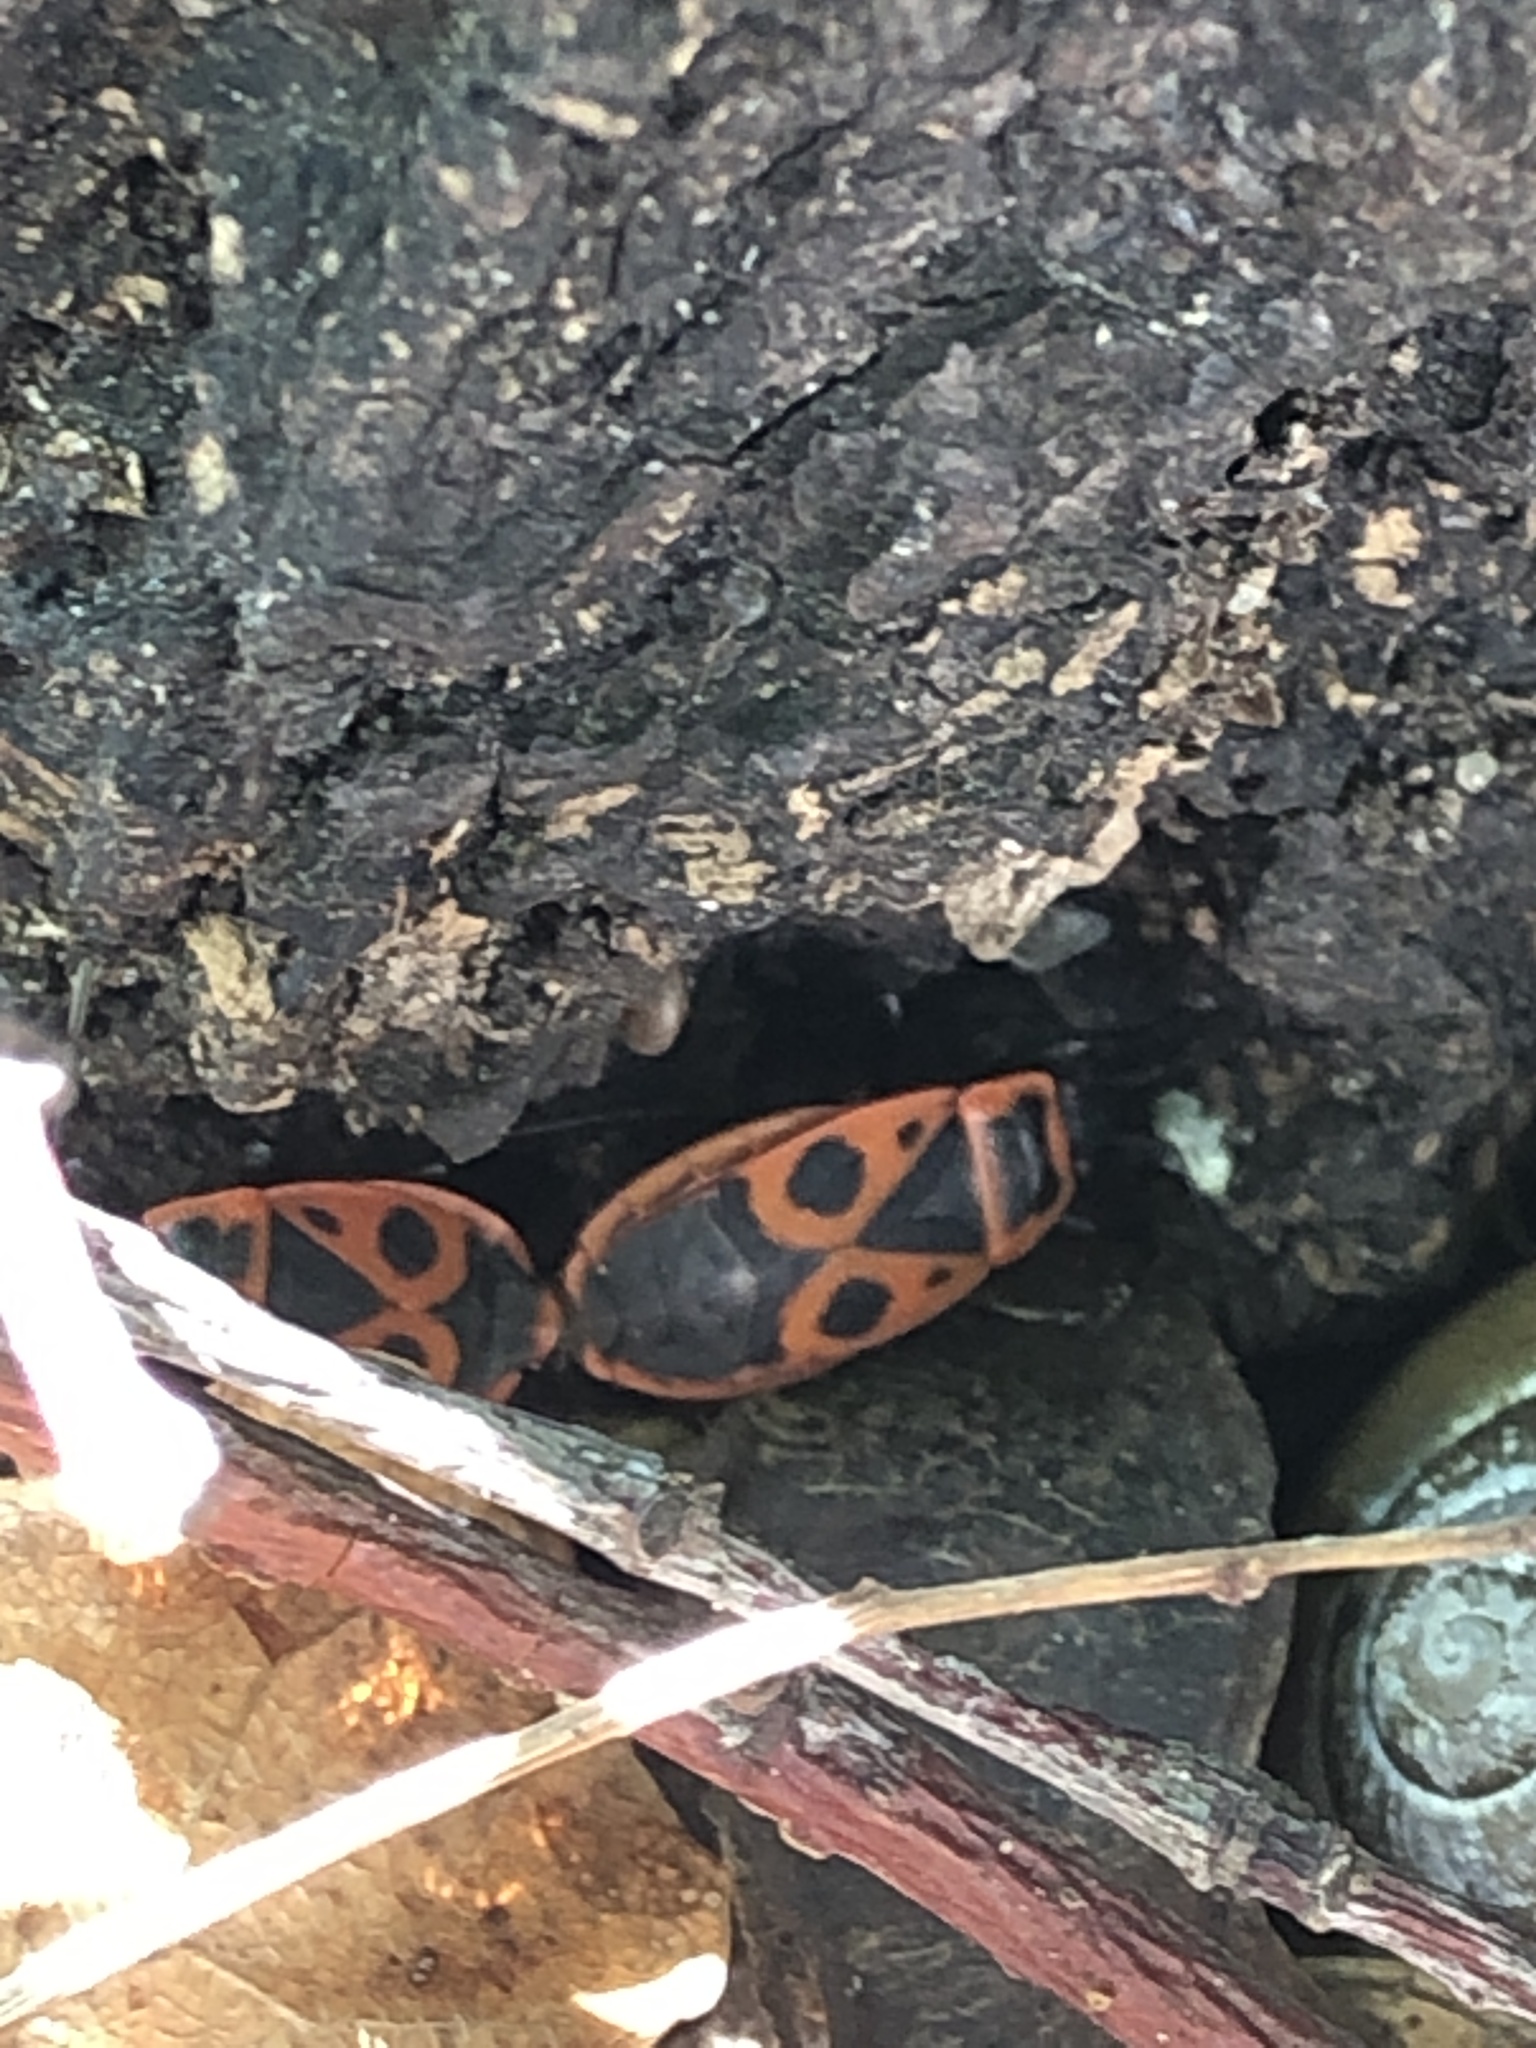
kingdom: Animalia
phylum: Arthropoda
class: Insecta
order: Hemiptera
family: Pyrrhocoridae
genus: Pyrrhocoris
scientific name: Pyrrhocoris apterus
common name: Firebug
